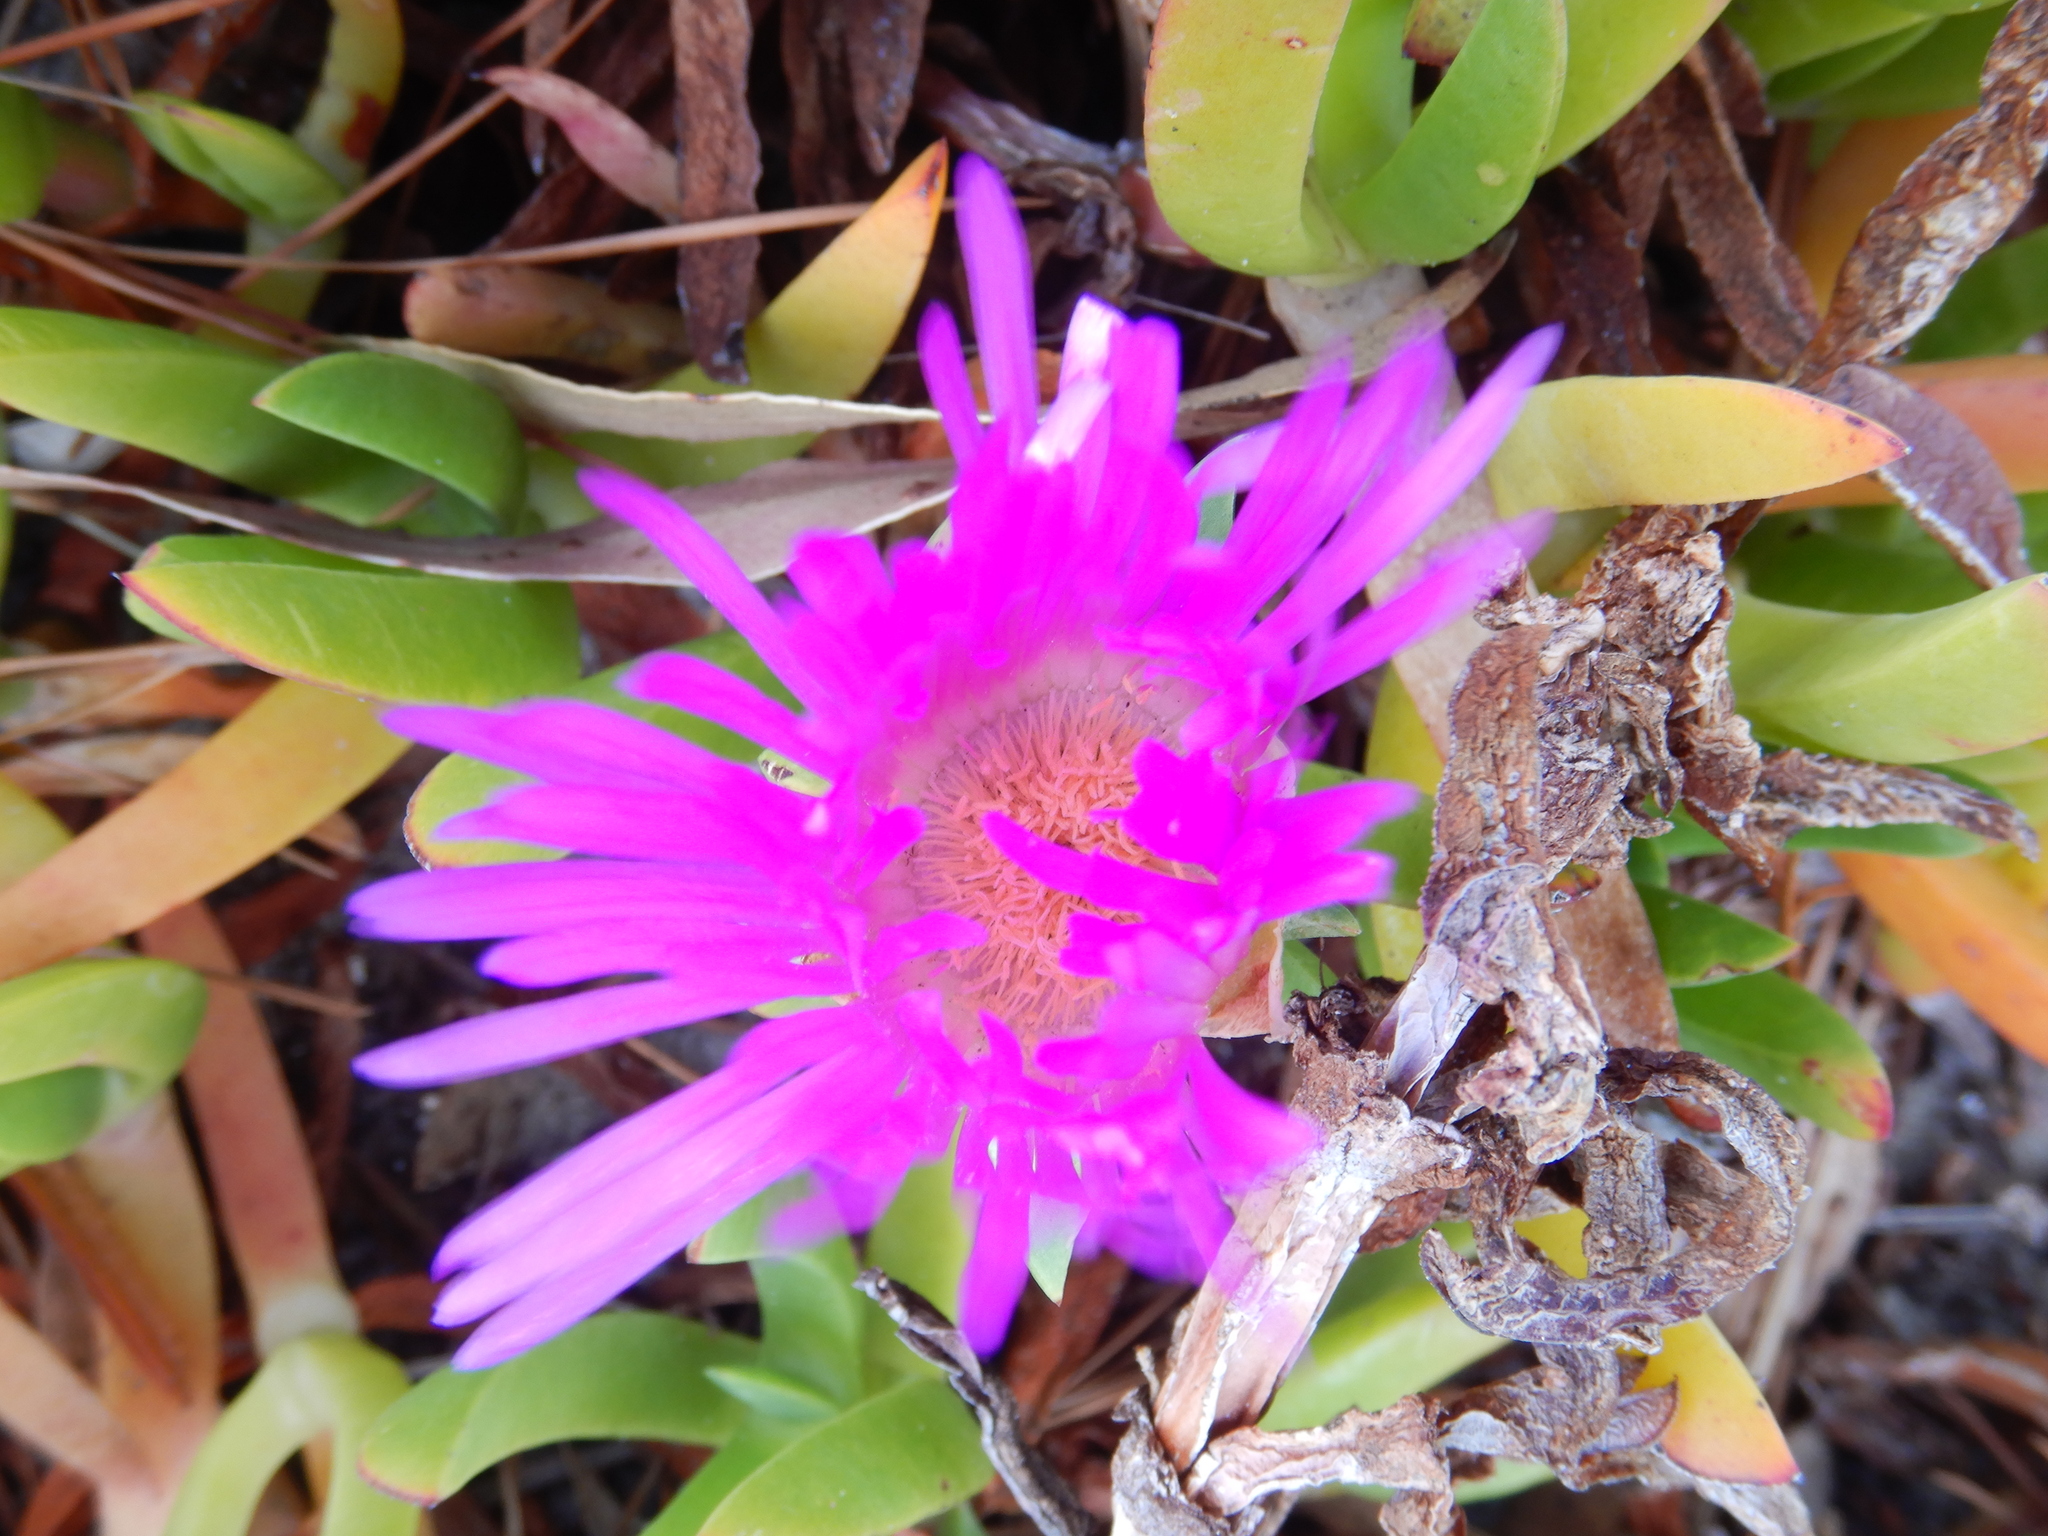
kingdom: Plantae
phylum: Tracheophyta
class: Magnoliopsida
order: Caryophyllales
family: Aizoaceae
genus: Carpobrotus
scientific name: Carpobrotus rossii
